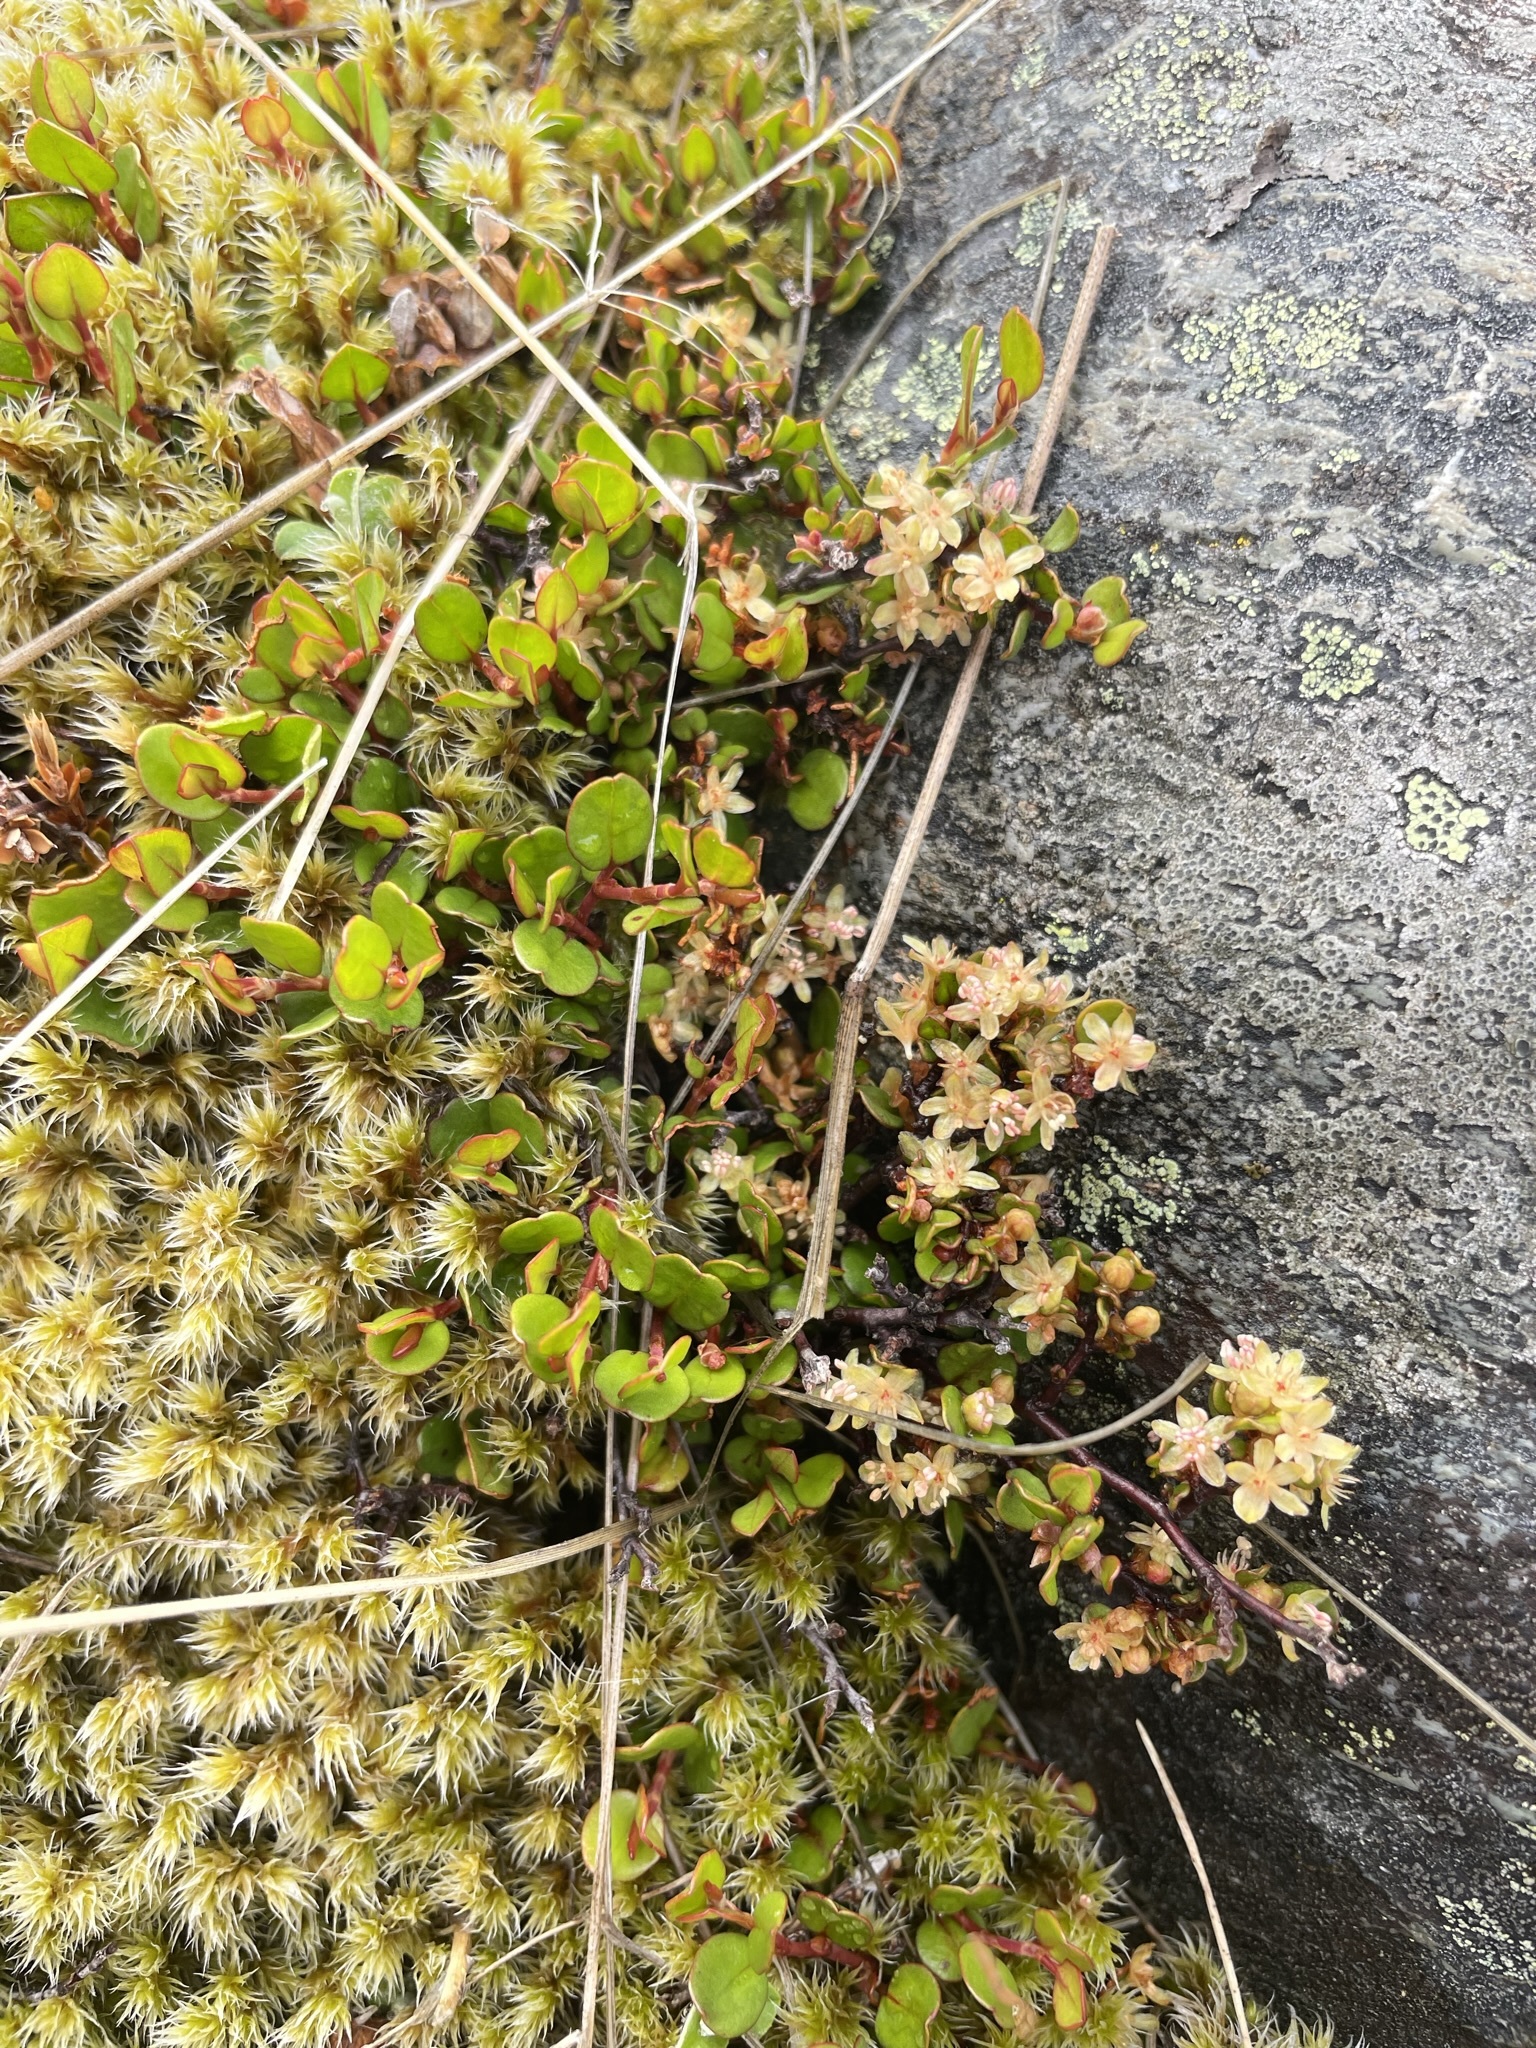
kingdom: Plantae
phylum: Tracheophyta
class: Magnoliopsida
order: Caryophyllales
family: Polygonaceae
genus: Muehlenbeckia
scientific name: Muehlenbeckia axillaris
